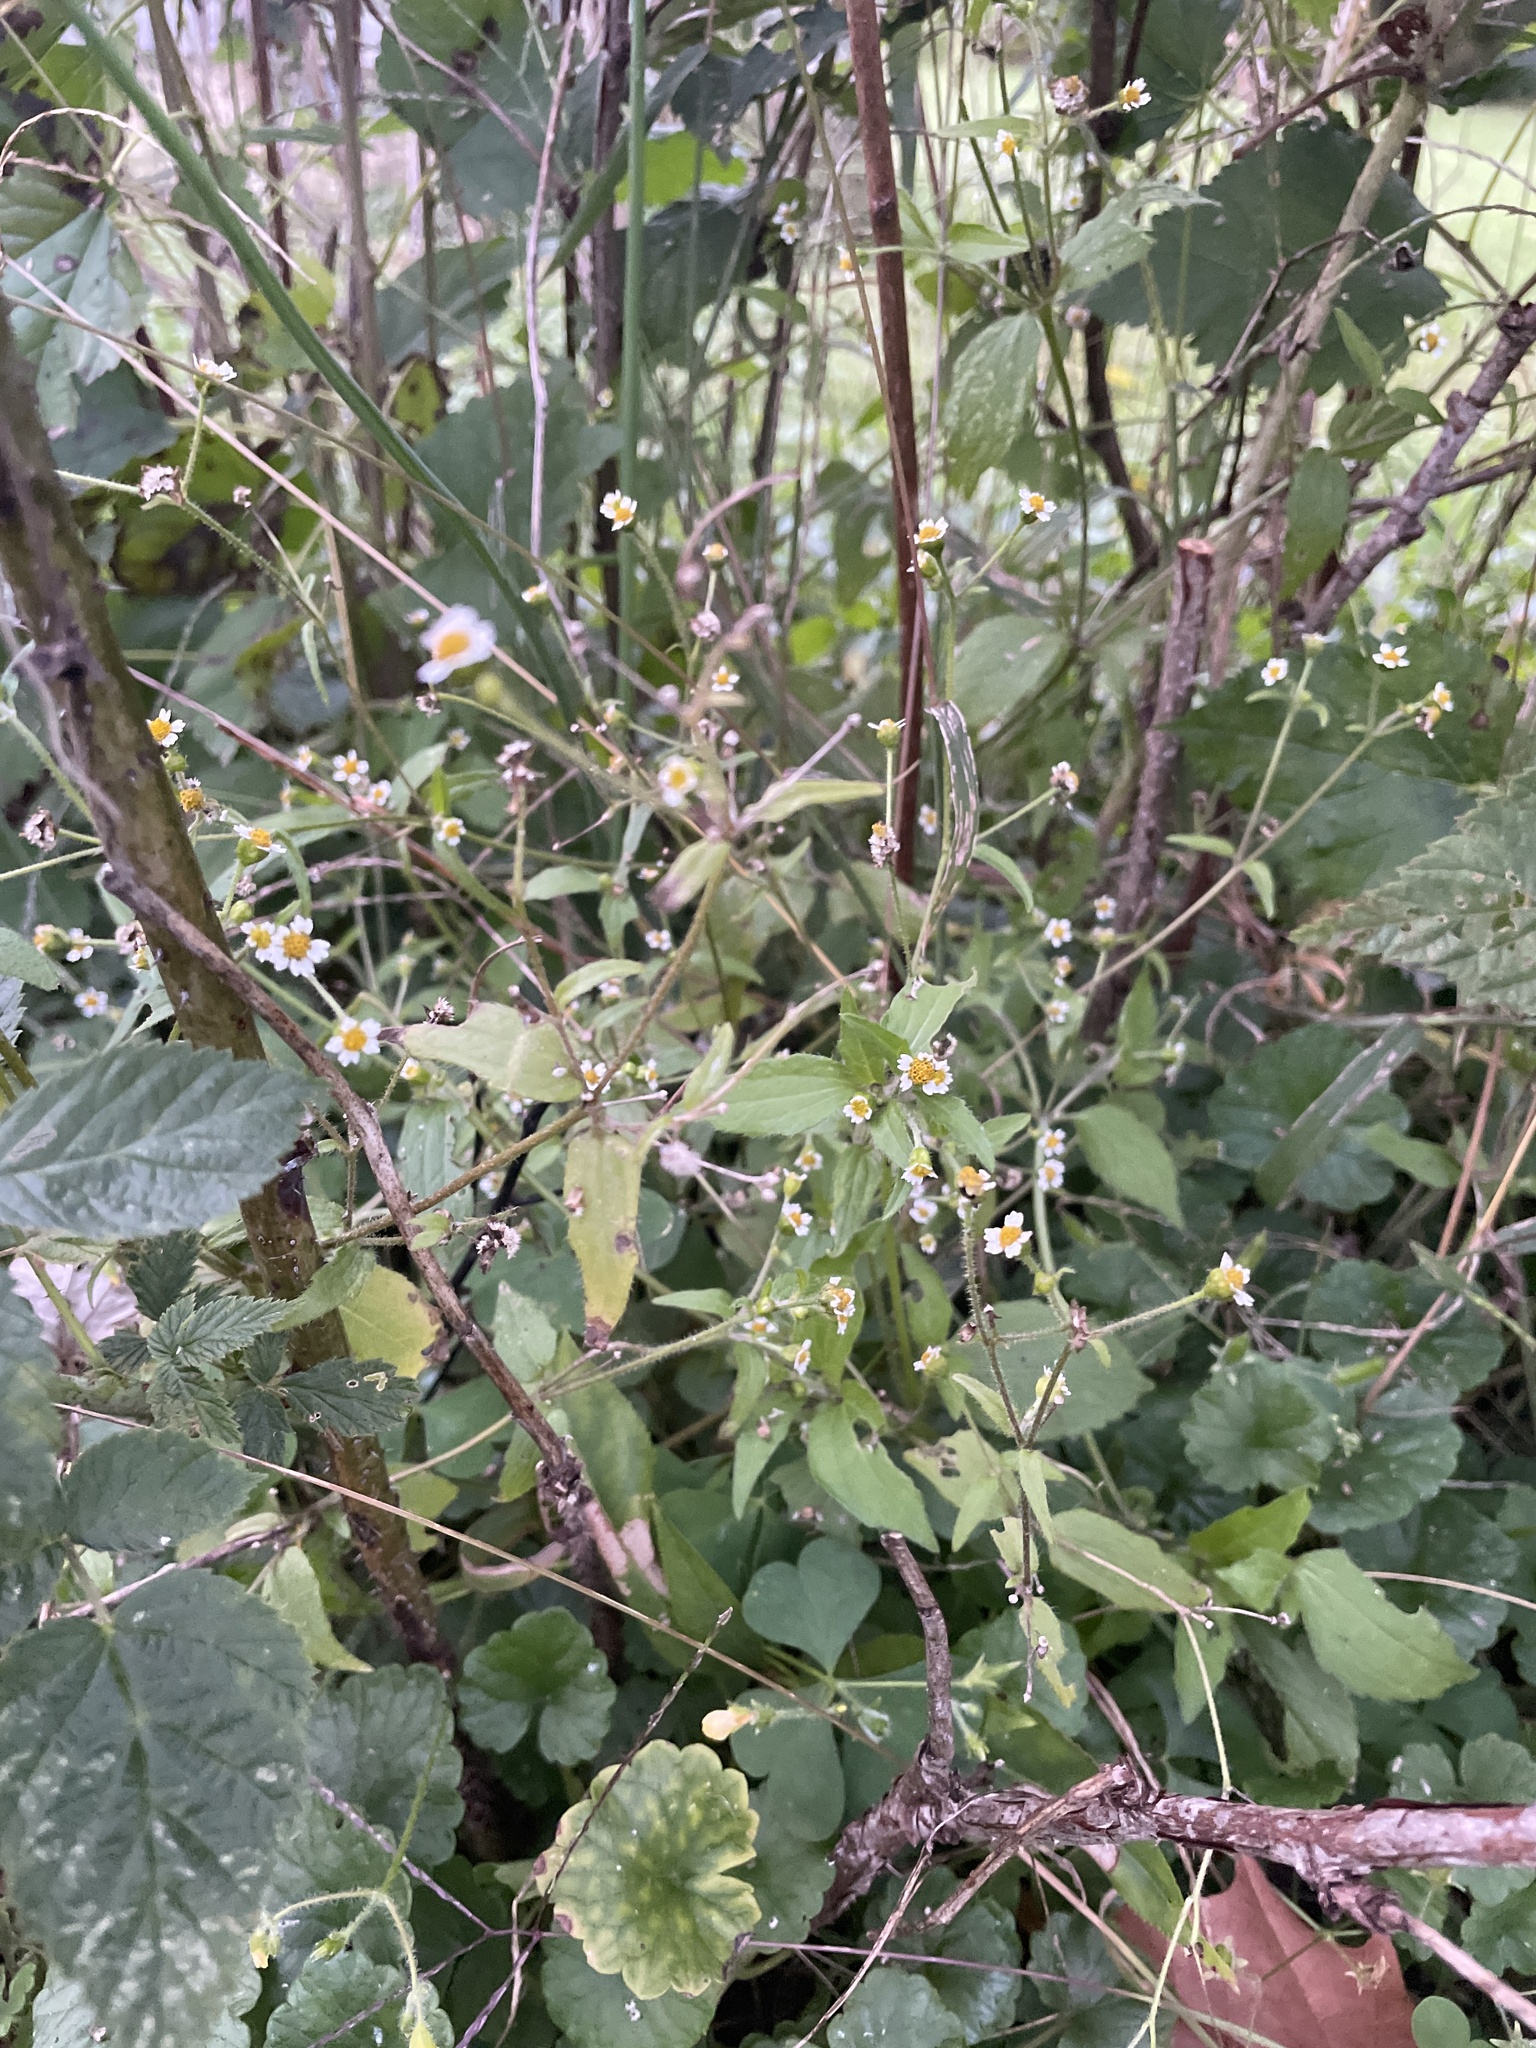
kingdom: Plantae
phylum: Tracheophyta
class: Magnoliopsida
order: Asterales
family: Asteraceae
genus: Galinsoga
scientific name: Galinsoga quadriradiata
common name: Shaggy soldier
